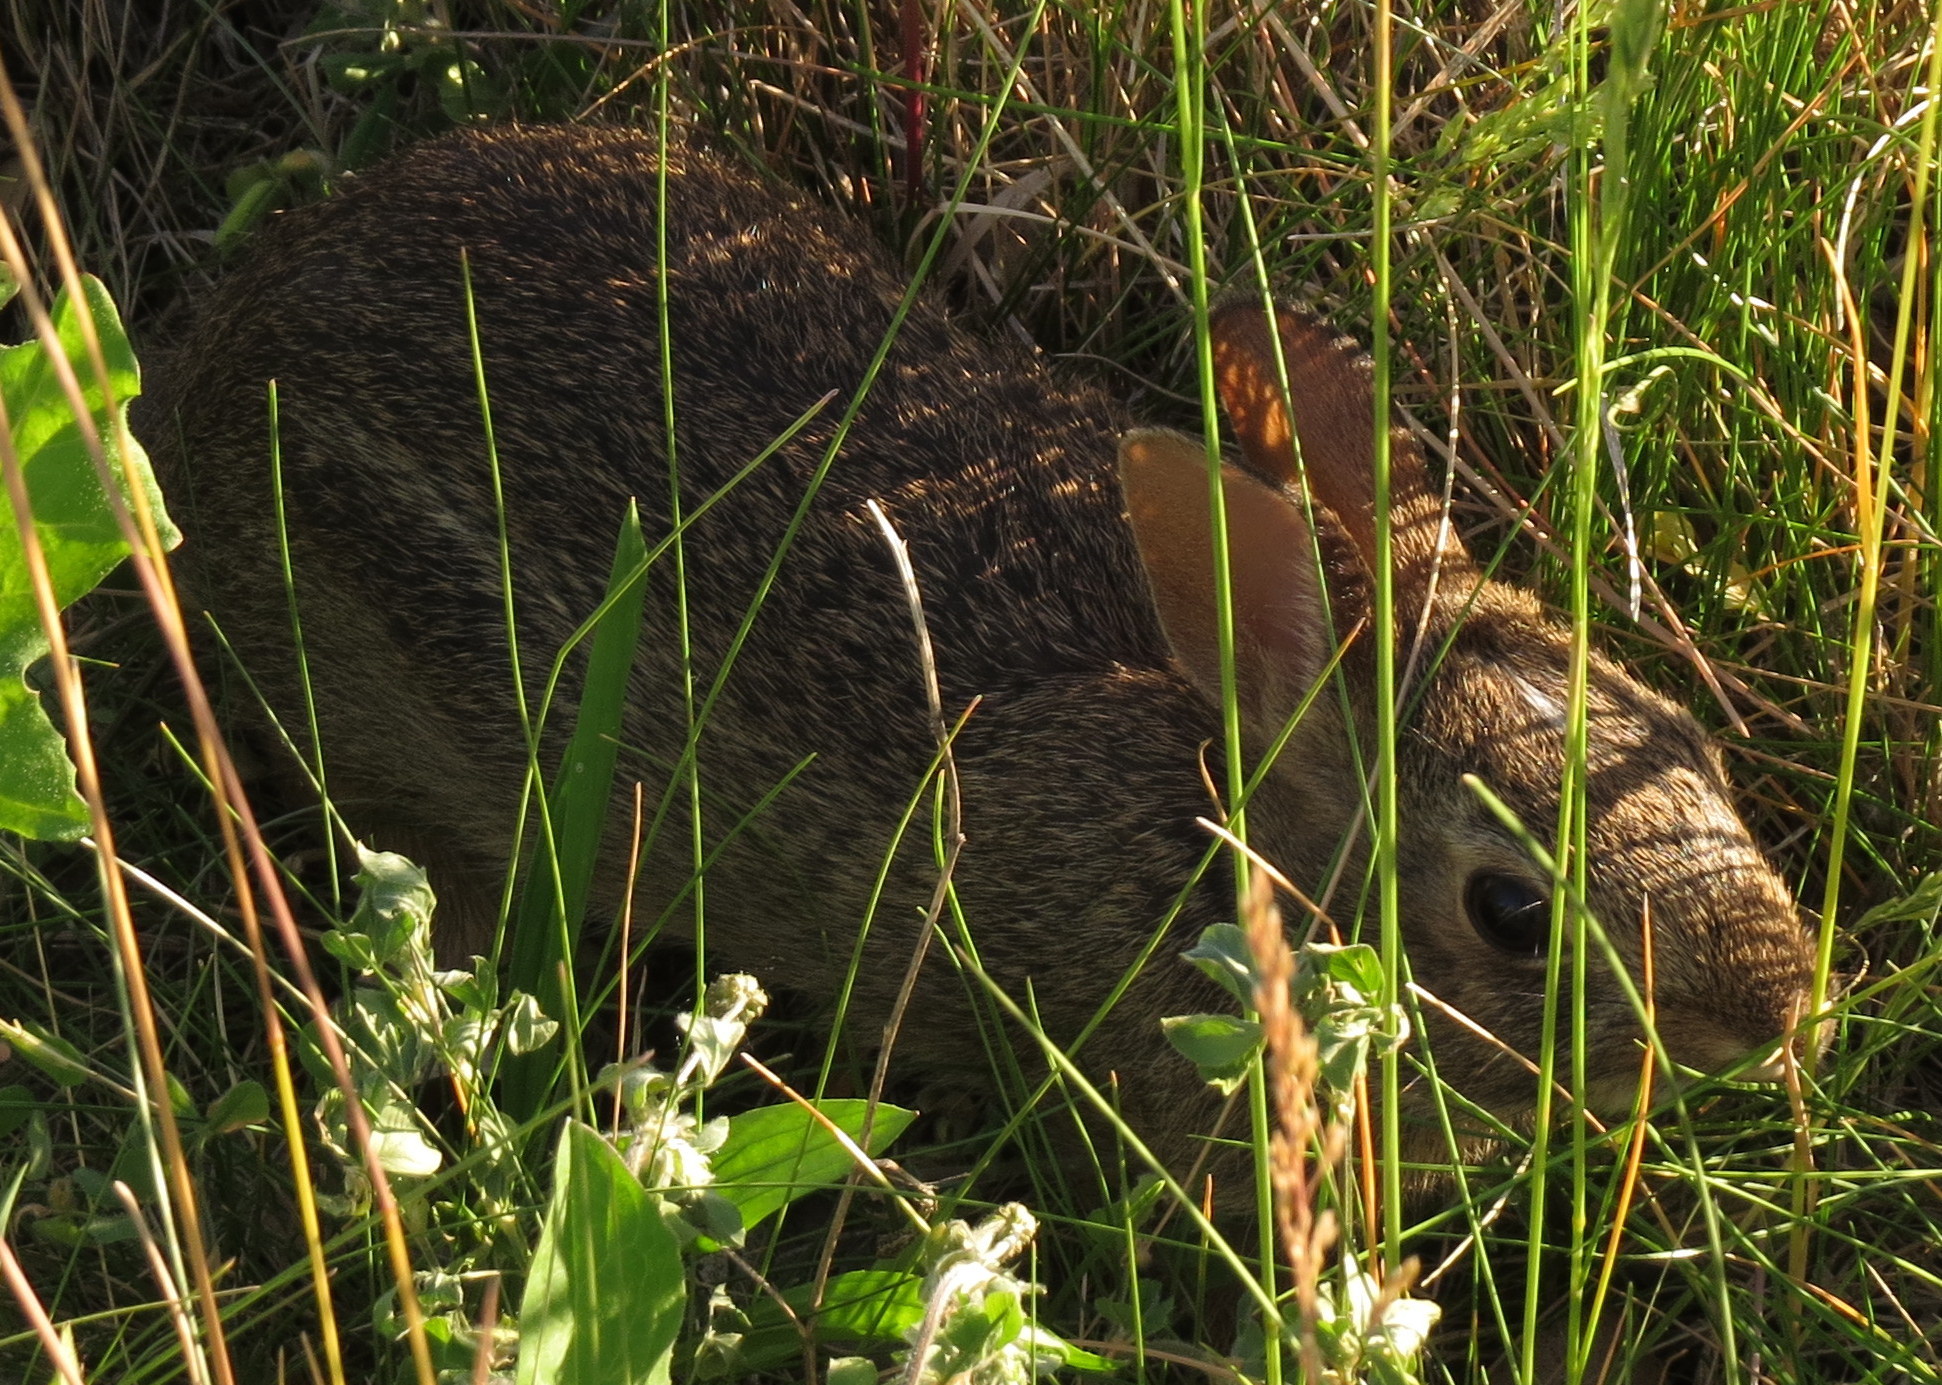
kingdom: Animalia
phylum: Chordata
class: Mammalia
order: Lagomorpha
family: Leporidae
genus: Sylvilagus
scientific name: Sylvilagus floridanus
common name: Eastern cottontail
